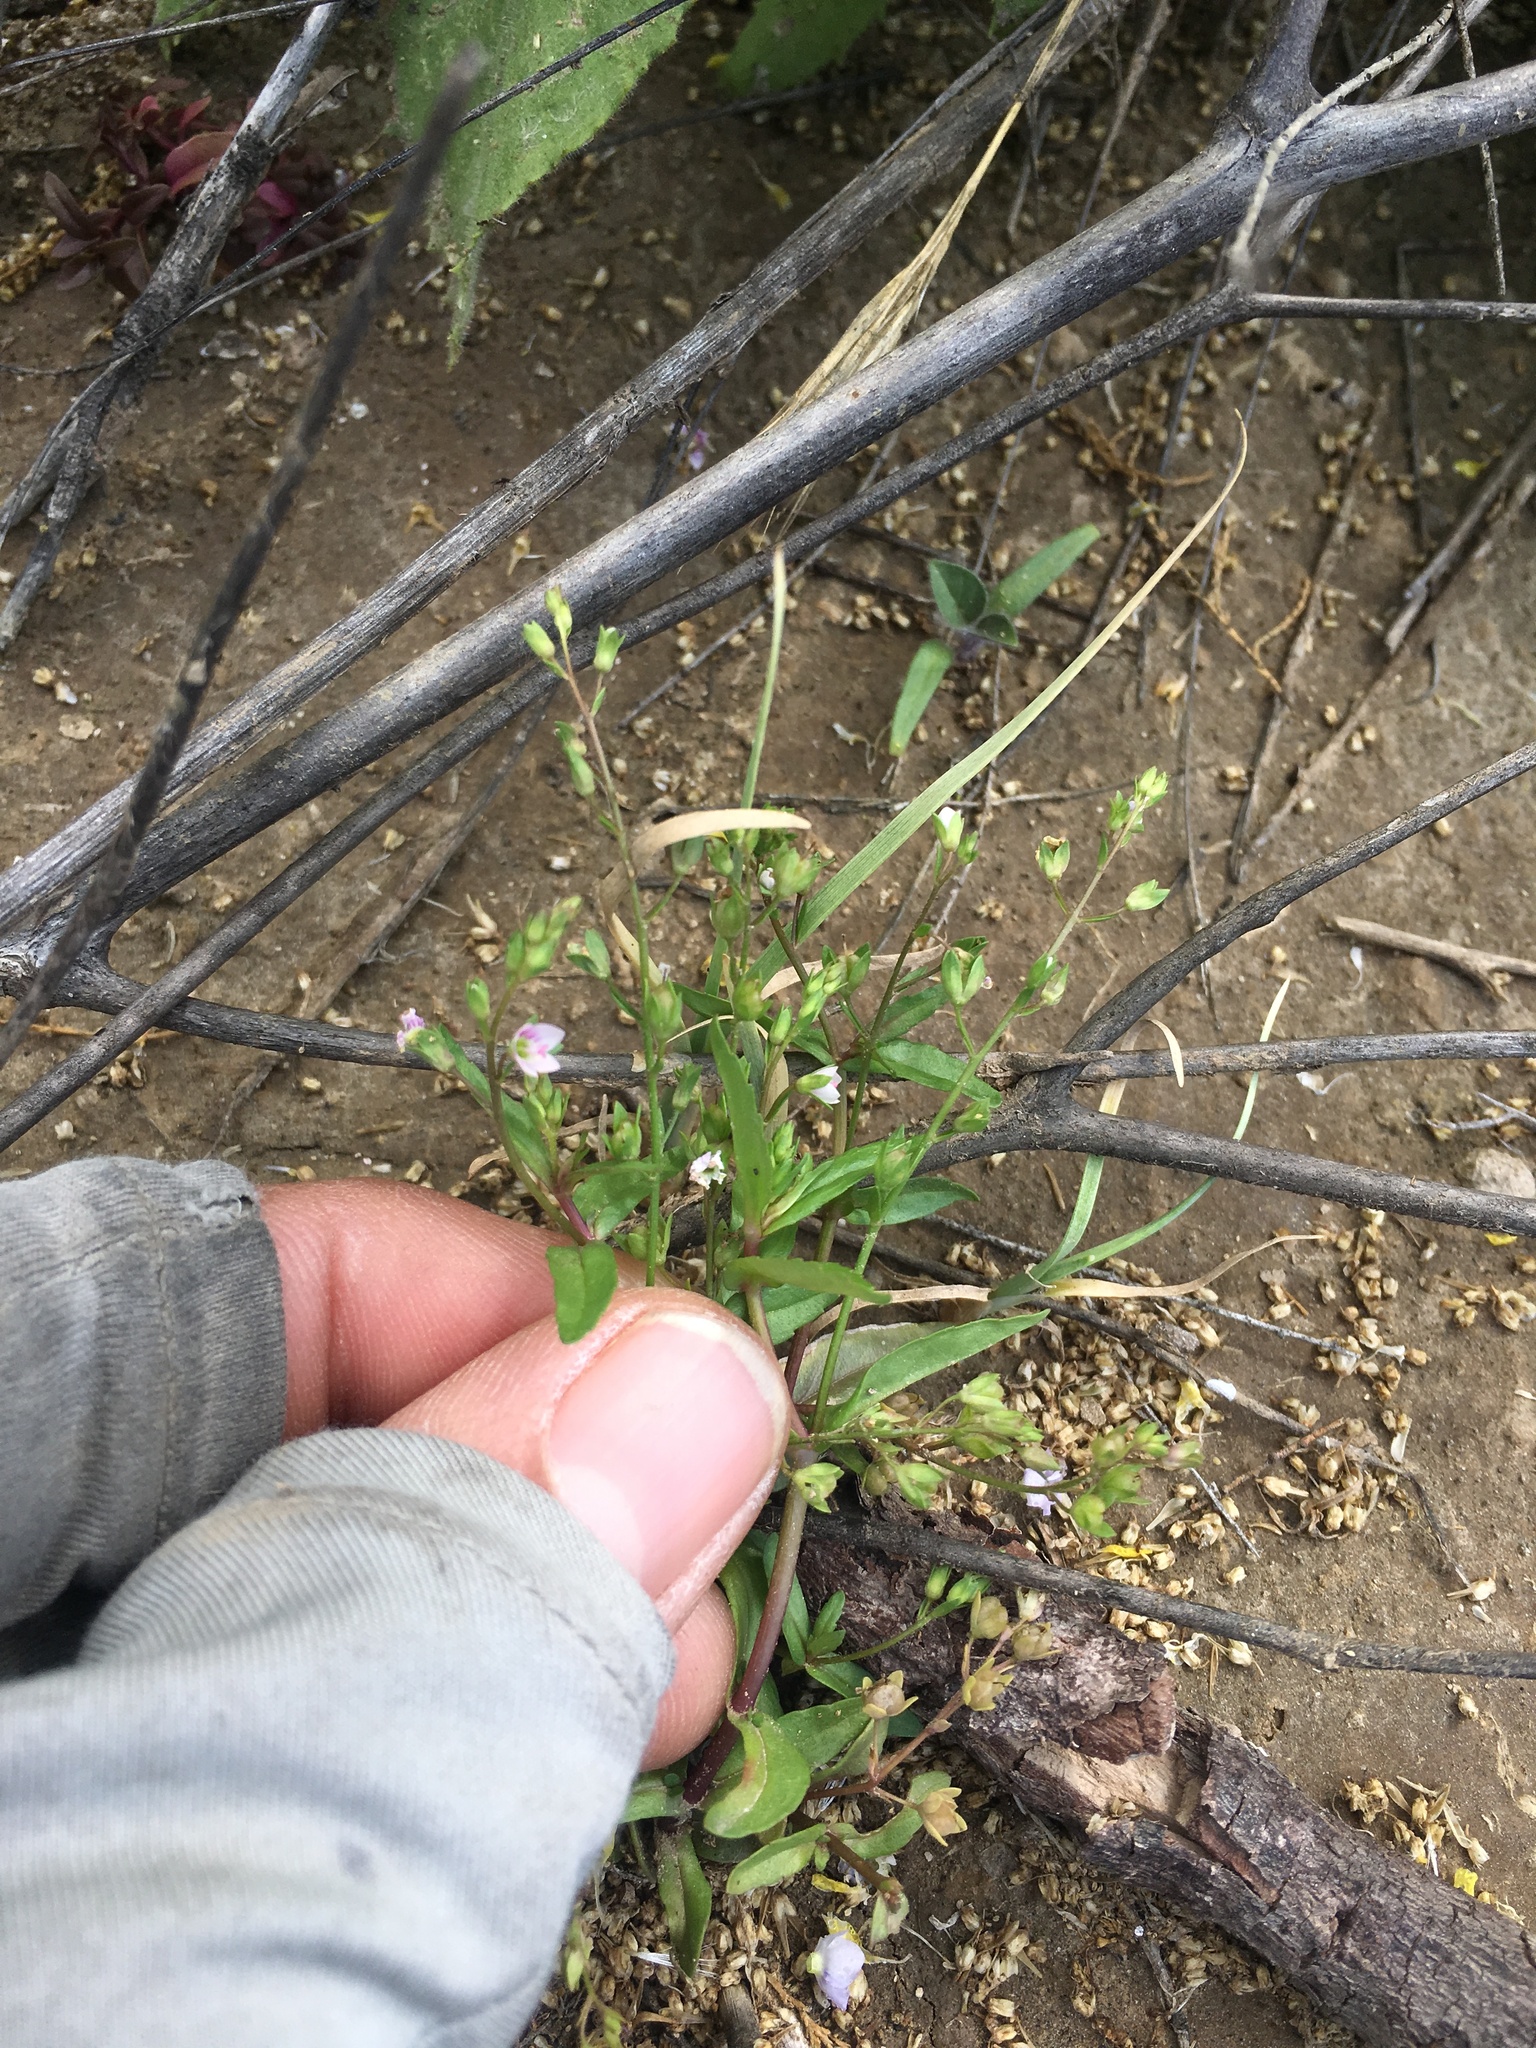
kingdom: Plantae
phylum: Tracheophyta
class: Magnoliopsida
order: Lamiales
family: Plantaginaceae
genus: Veronica
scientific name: Veronica catenata
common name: Pink water-speedwell
